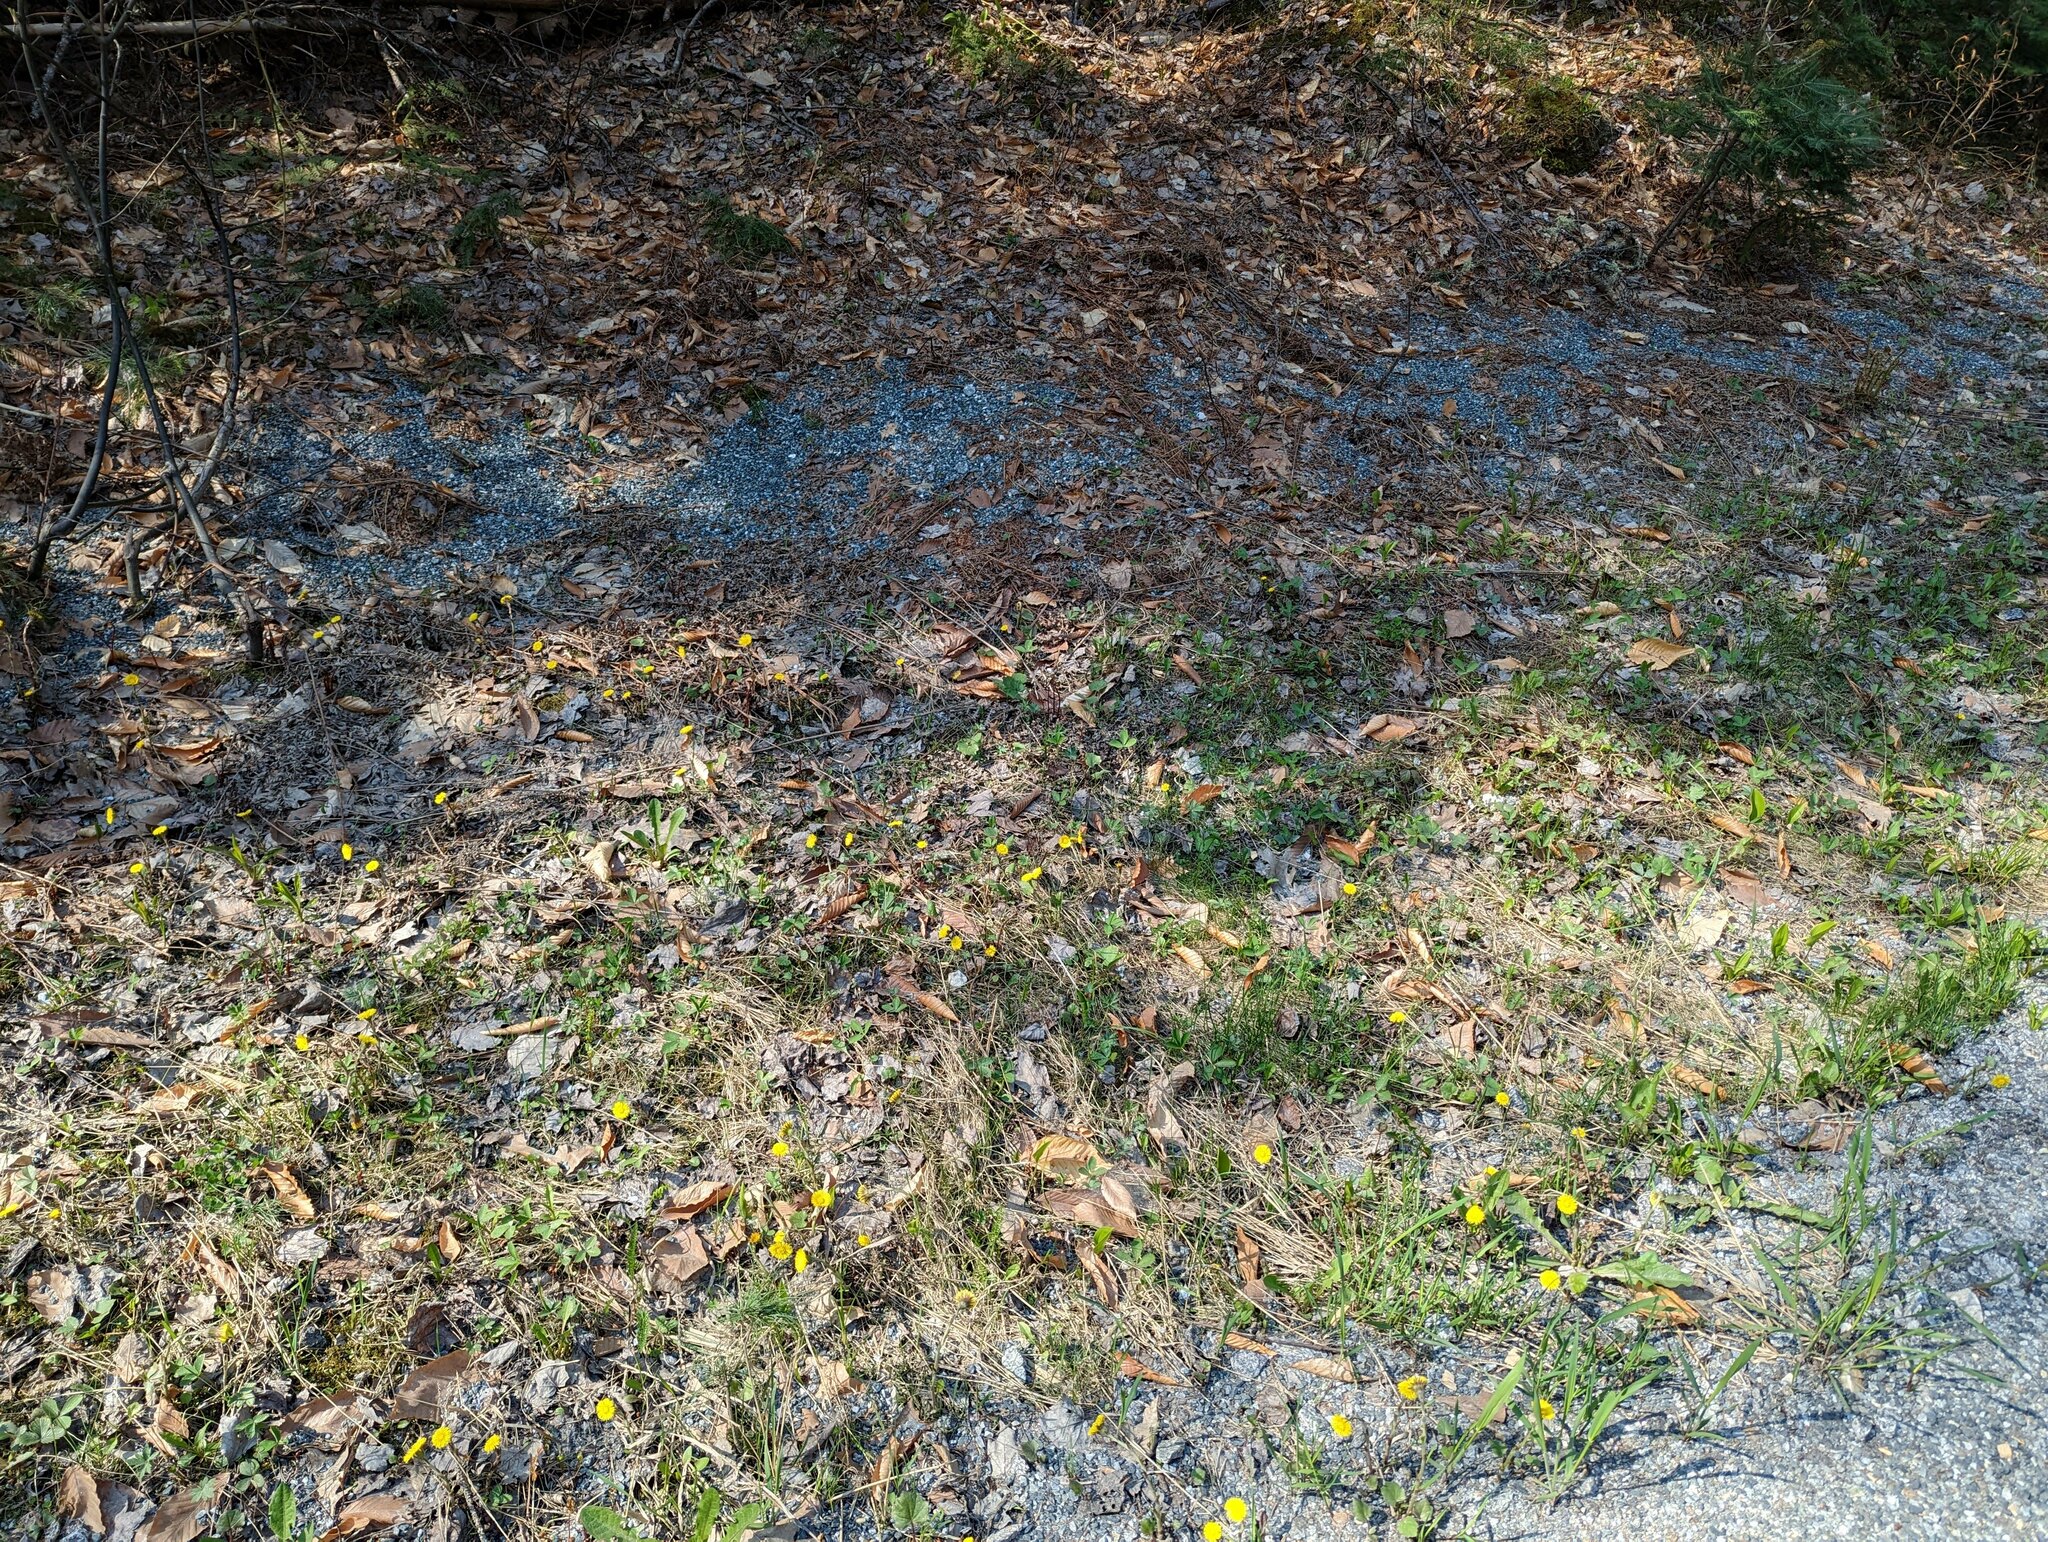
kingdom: Plantae
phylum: Tracheophyta
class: Magnoliopsida
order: Asterales
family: Asteraceae
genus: Tussilago
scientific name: Tussilago farfara
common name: Coltsfoot
